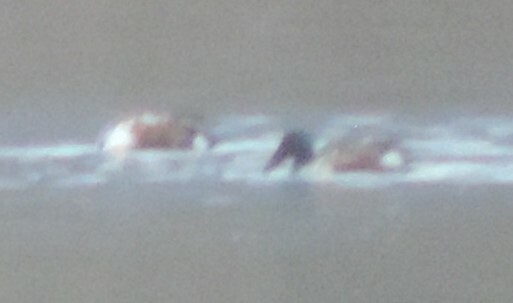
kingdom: Animalia
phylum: Chordata
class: Aves
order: Anseriformes
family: Anatidae
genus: Spatula
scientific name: Spatula clypeata
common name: Northern shoveler
